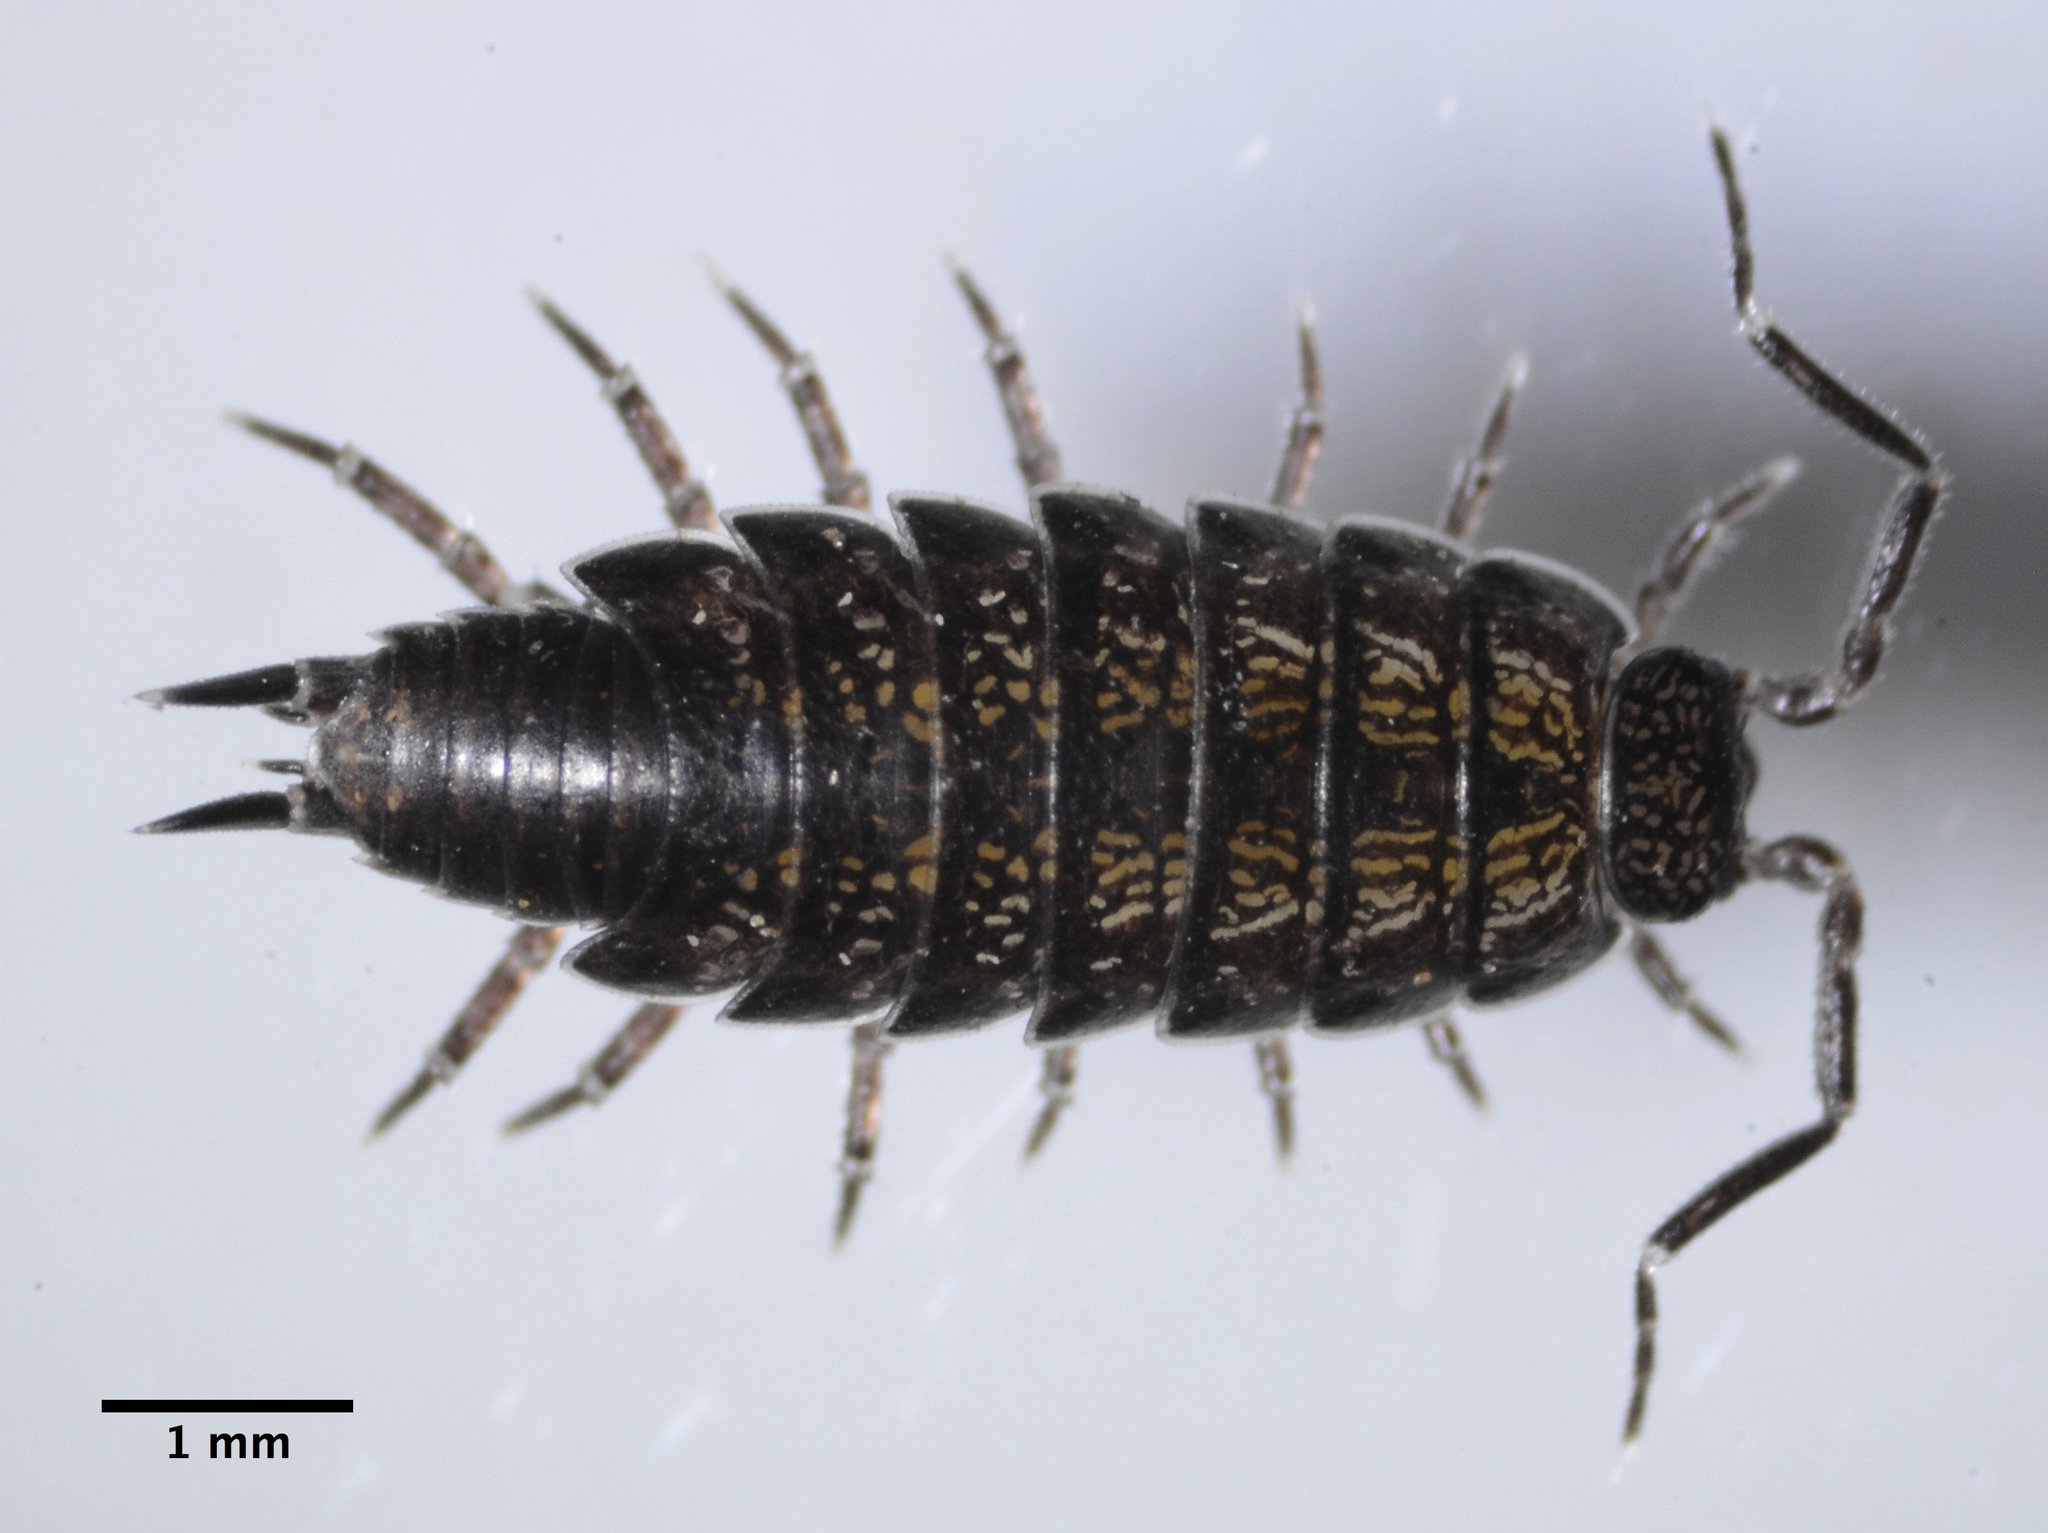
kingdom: Animalia
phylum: Arthropoda
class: Malacostraca
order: Isopoda
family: Halophilosciidae
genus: Littorophiloscia
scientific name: Littorophiloscia richardsonae
